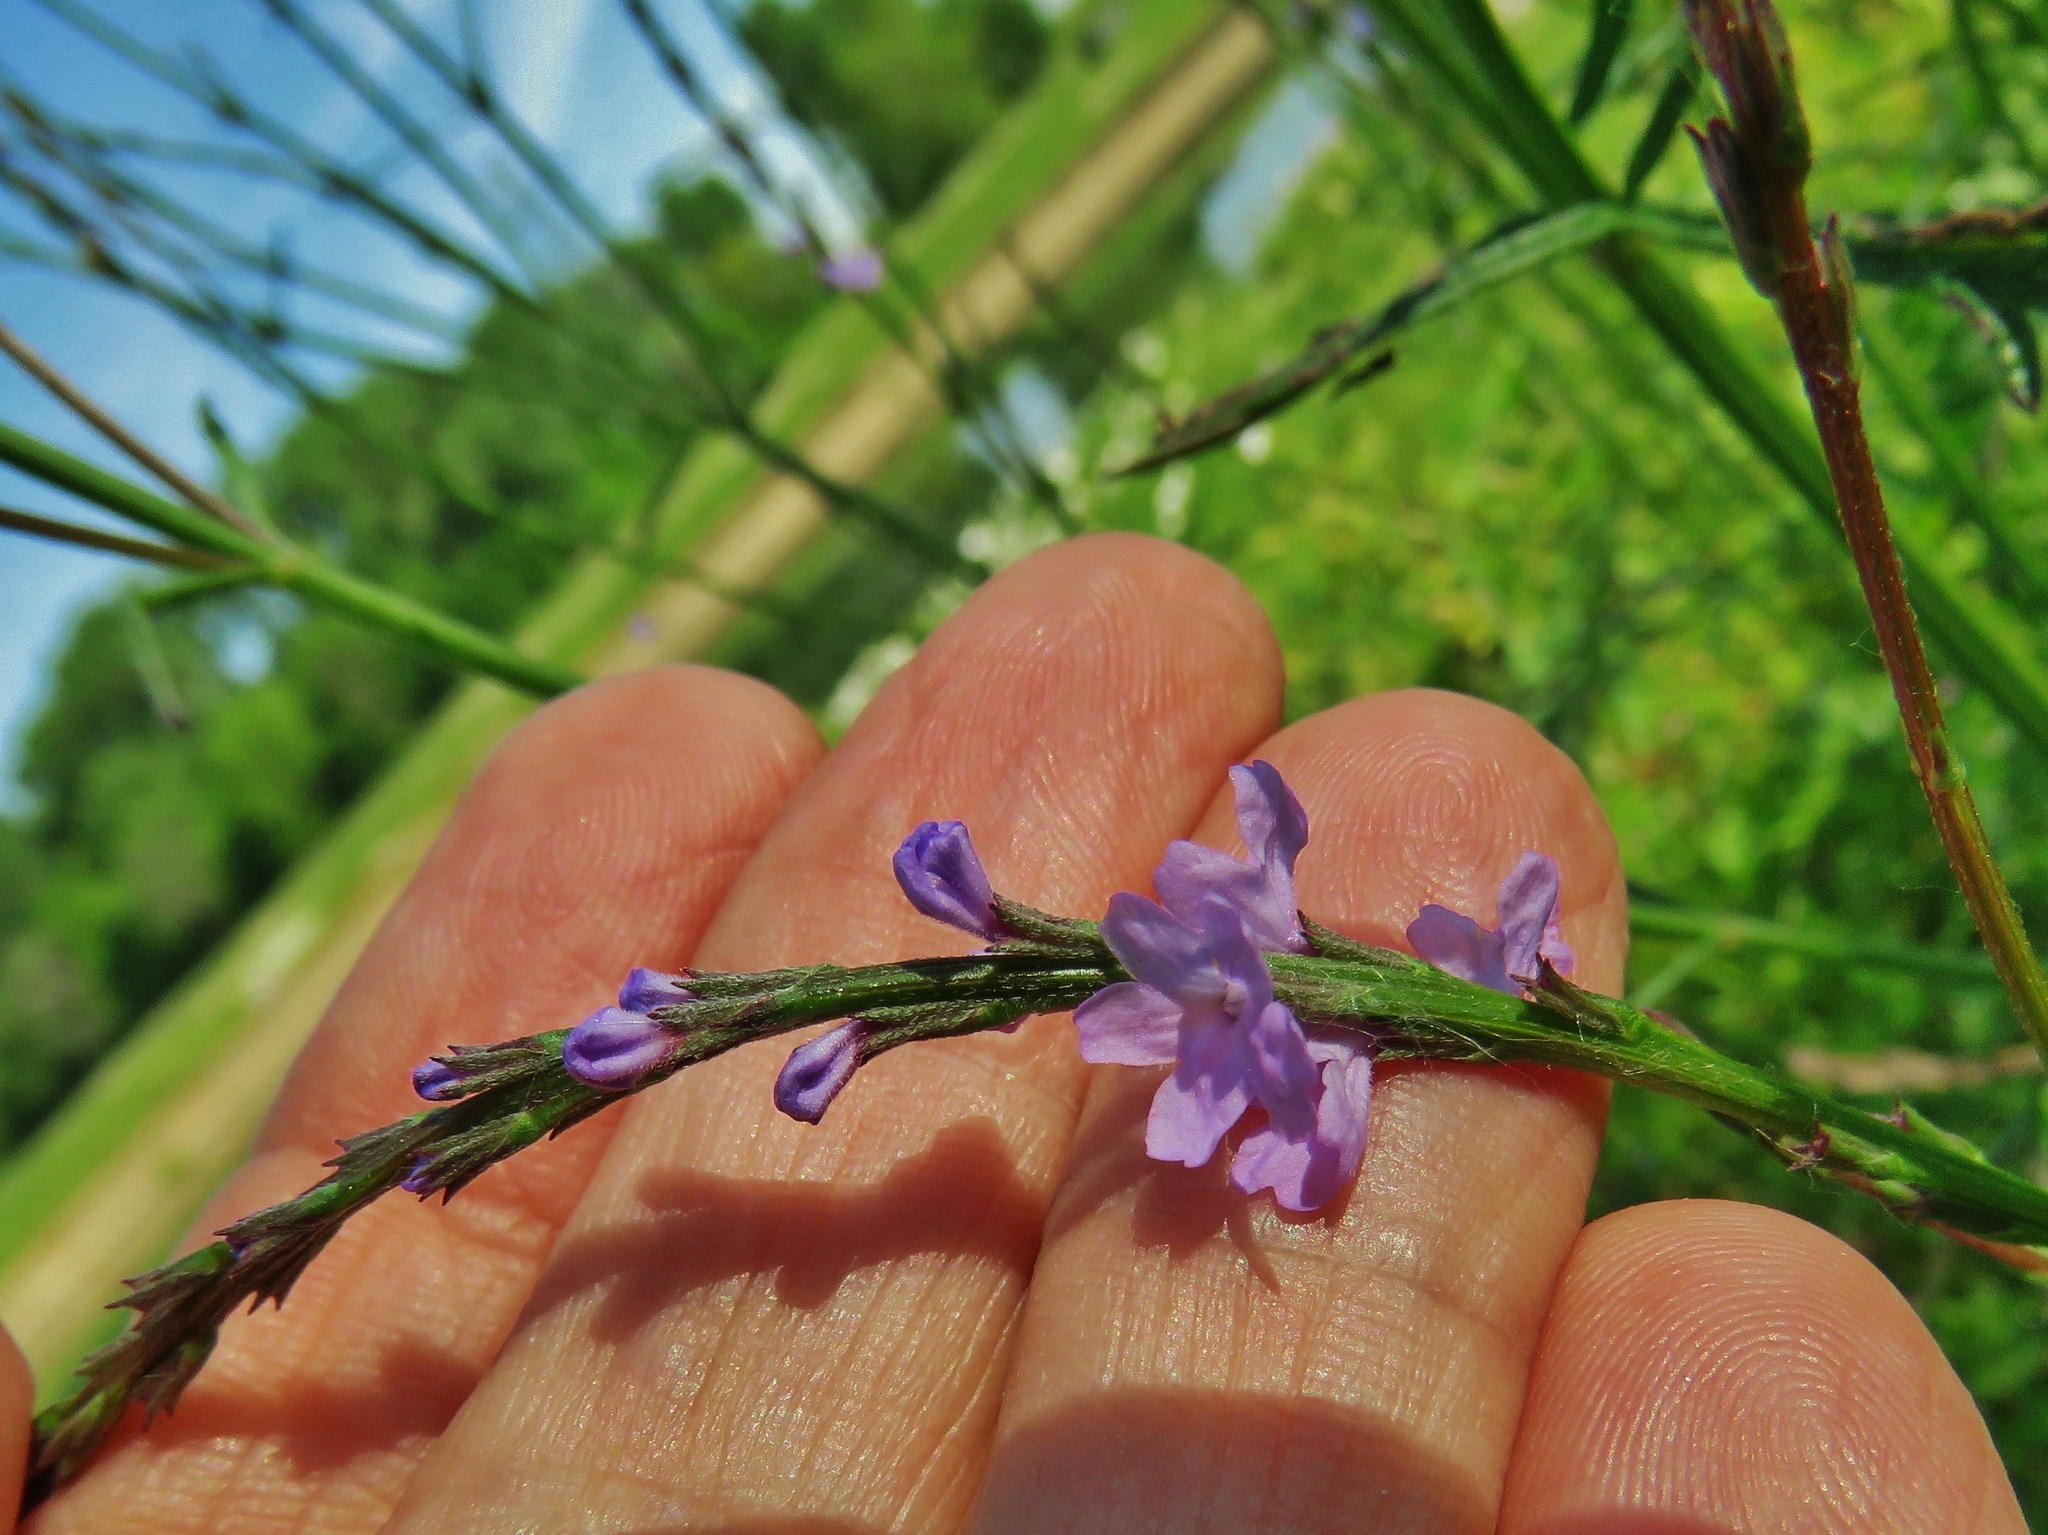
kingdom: Plantae
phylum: Tracheophyta
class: Magnoliopsida
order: Lamiales
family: Verbenaceae
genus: Verbena
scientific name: Verbena halei
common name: Texas vervain
